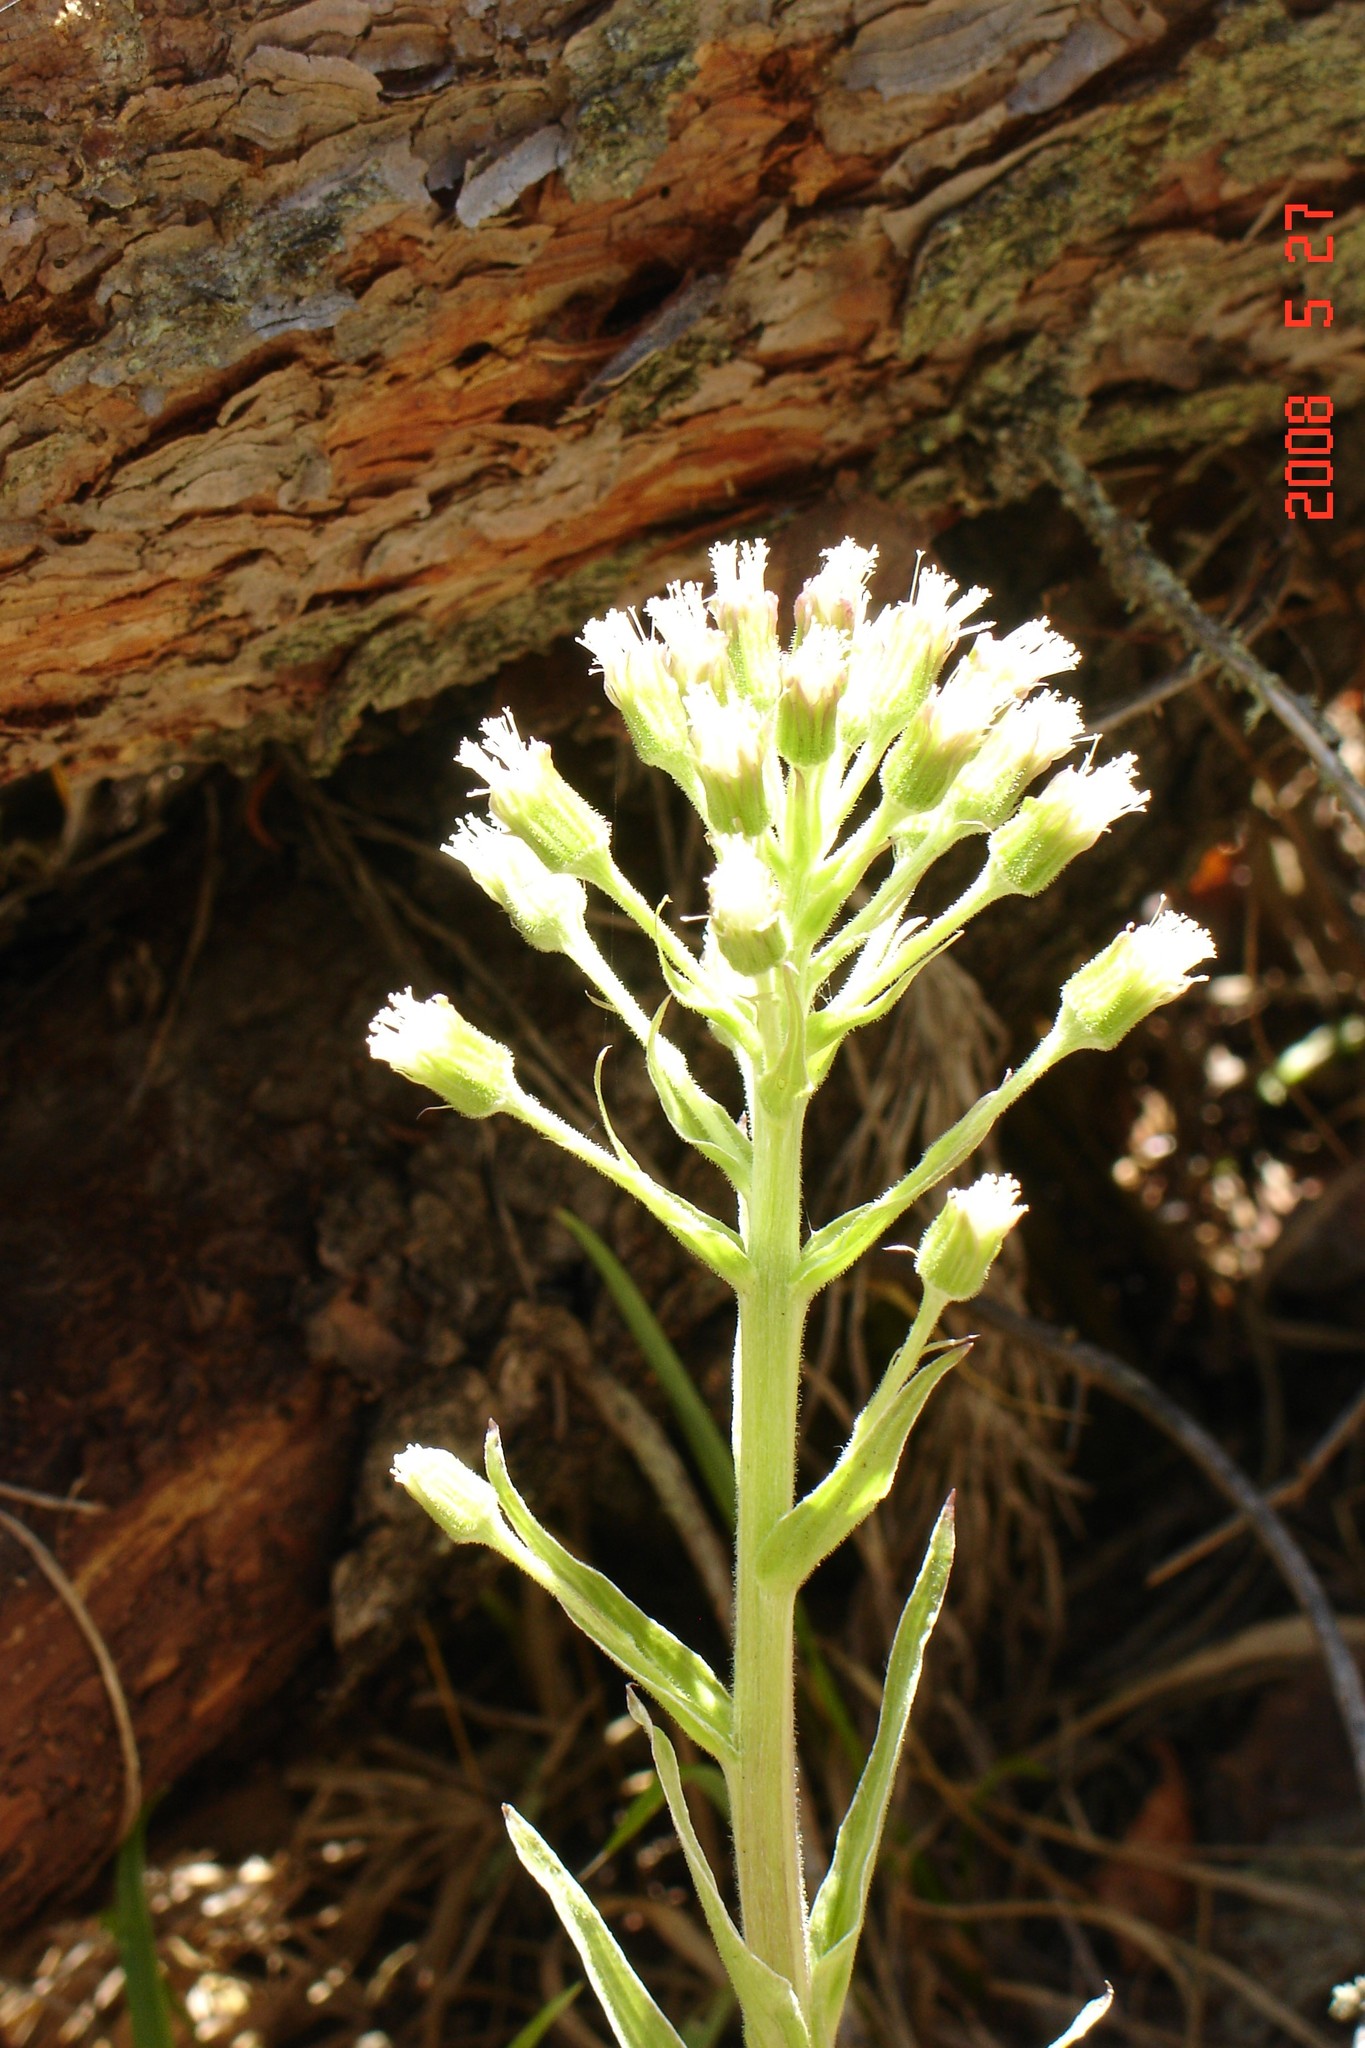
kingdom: Plantae
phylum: Tracheophyta
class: Magnoliopsida
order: Asterales
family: Asteraceae
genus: Petasites
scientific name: Petasites frigidus
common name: Arctic butterbur
